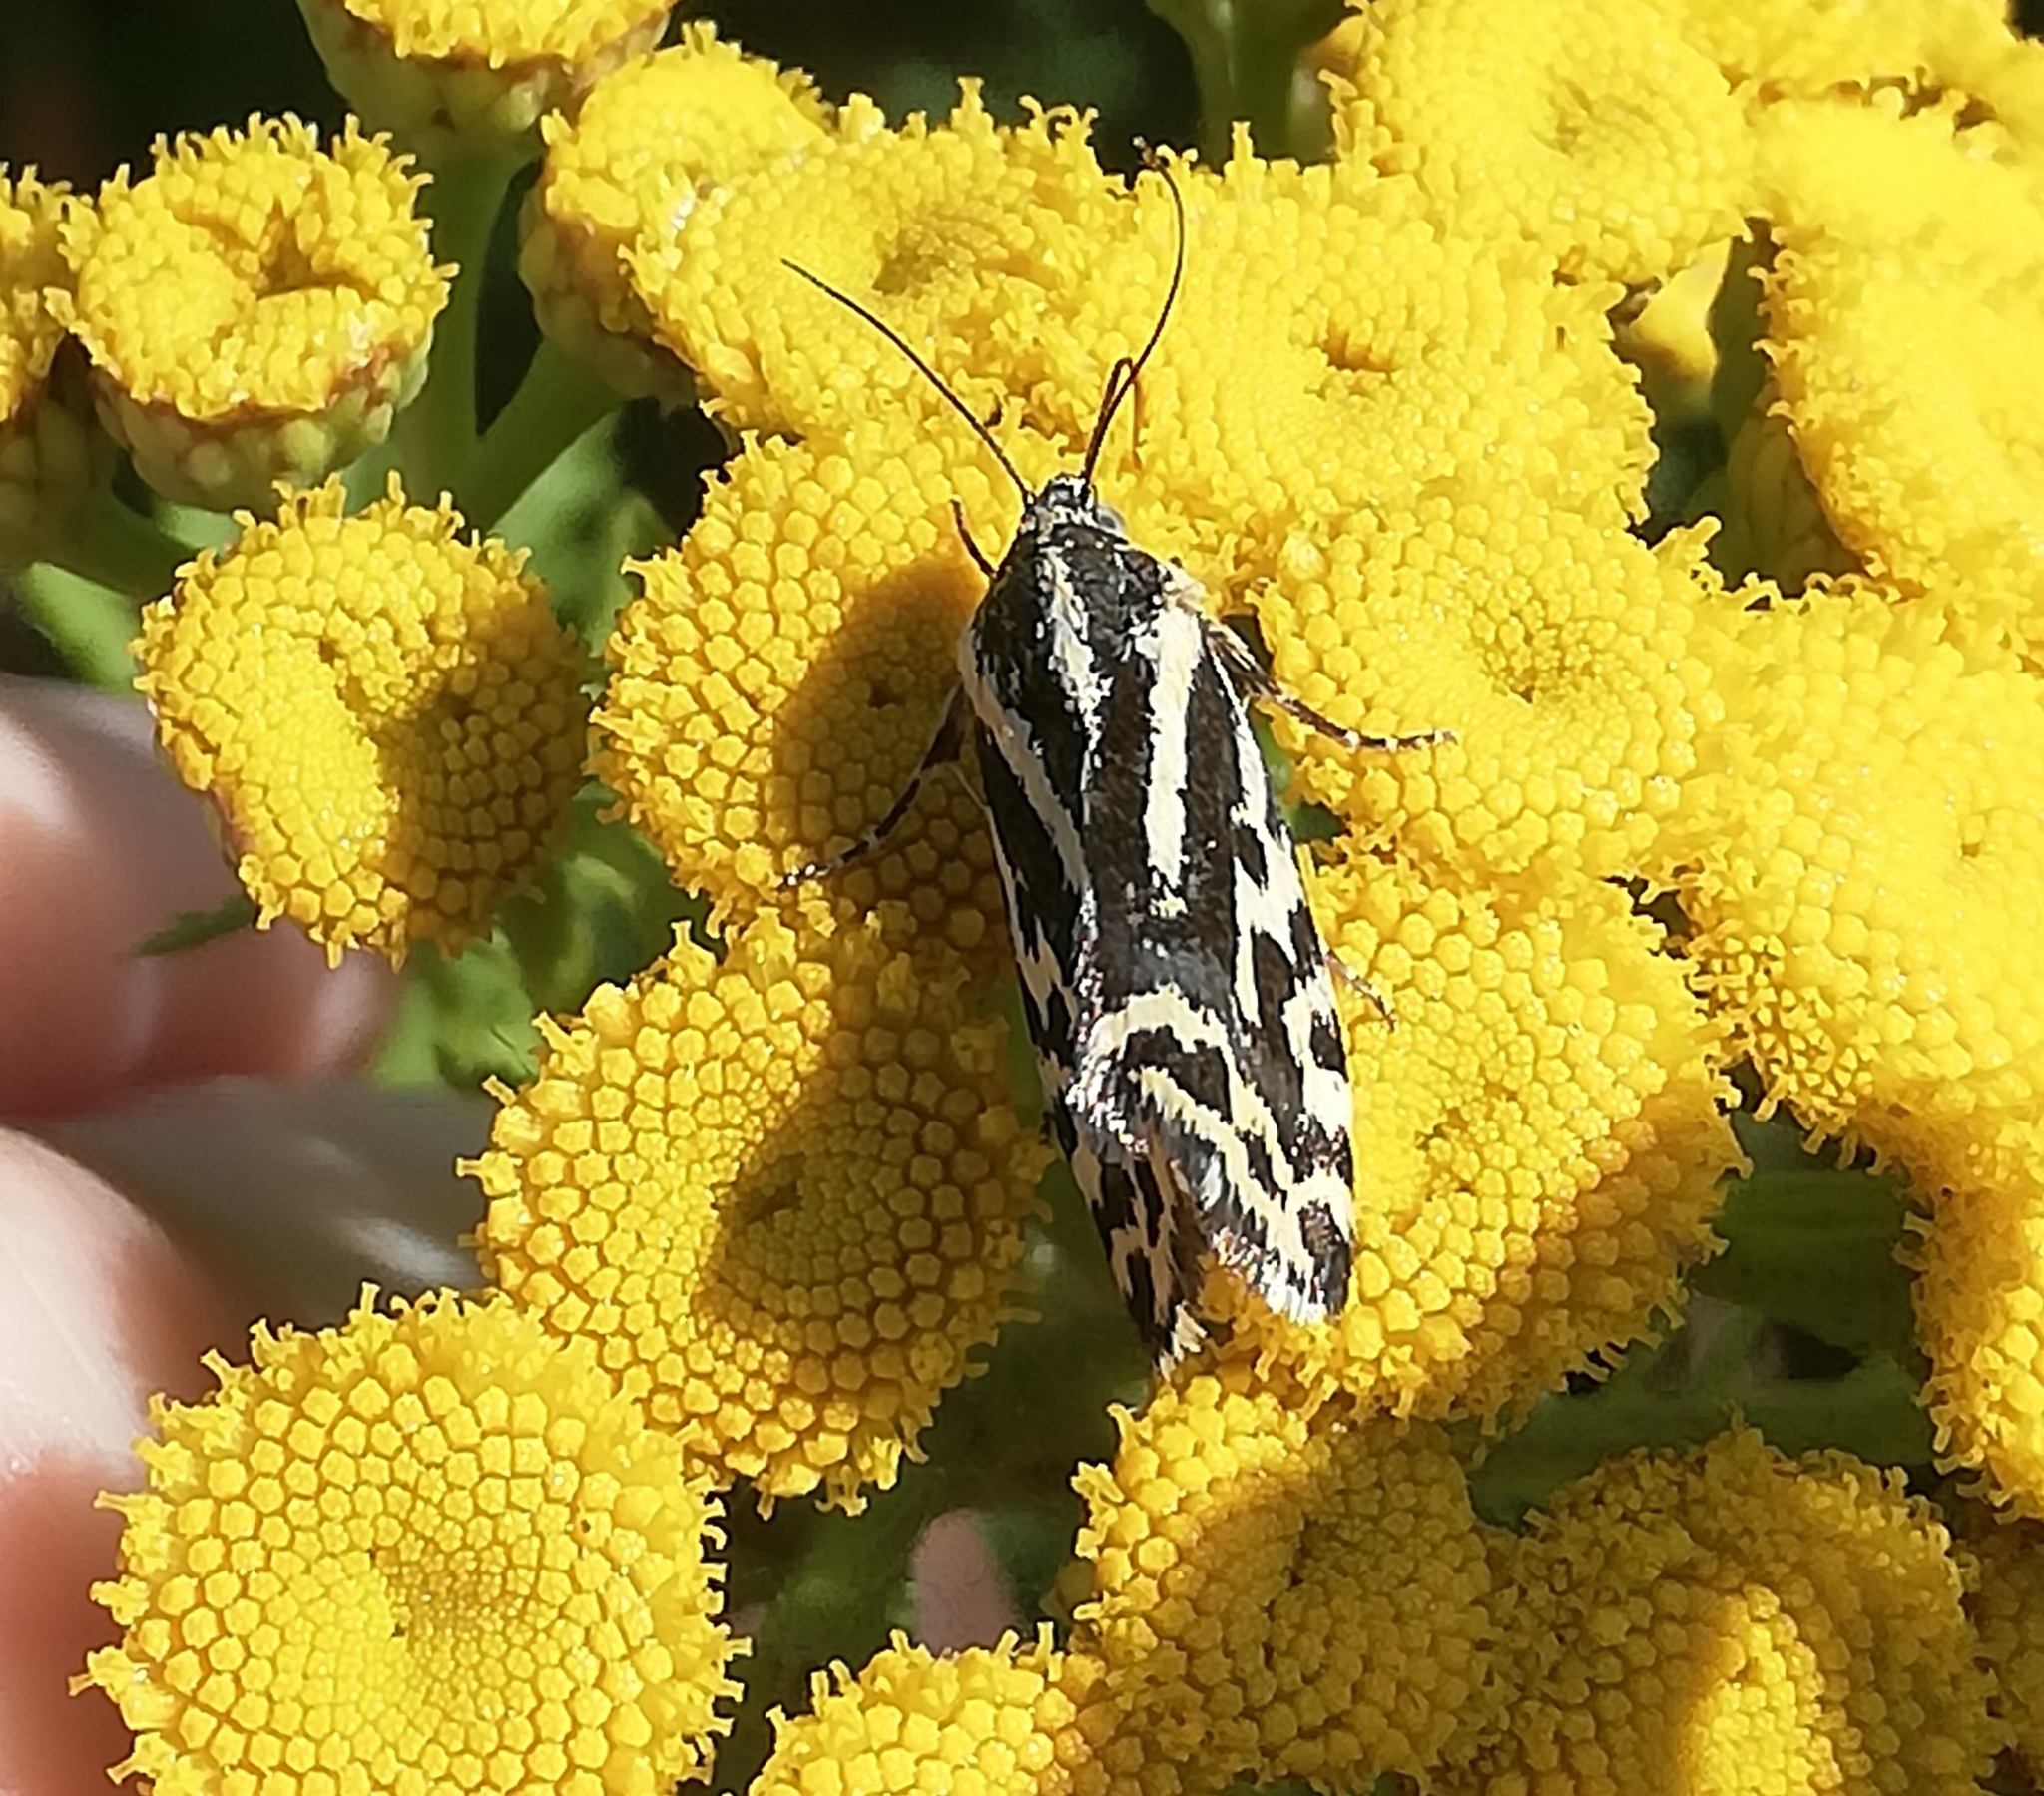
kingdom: Animalia
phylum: Arthropoda
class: Insecta
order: Lepidoptera
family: Noctuidae
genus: Acontia
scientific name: Acontia trabealis
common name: Spotted sulphur
